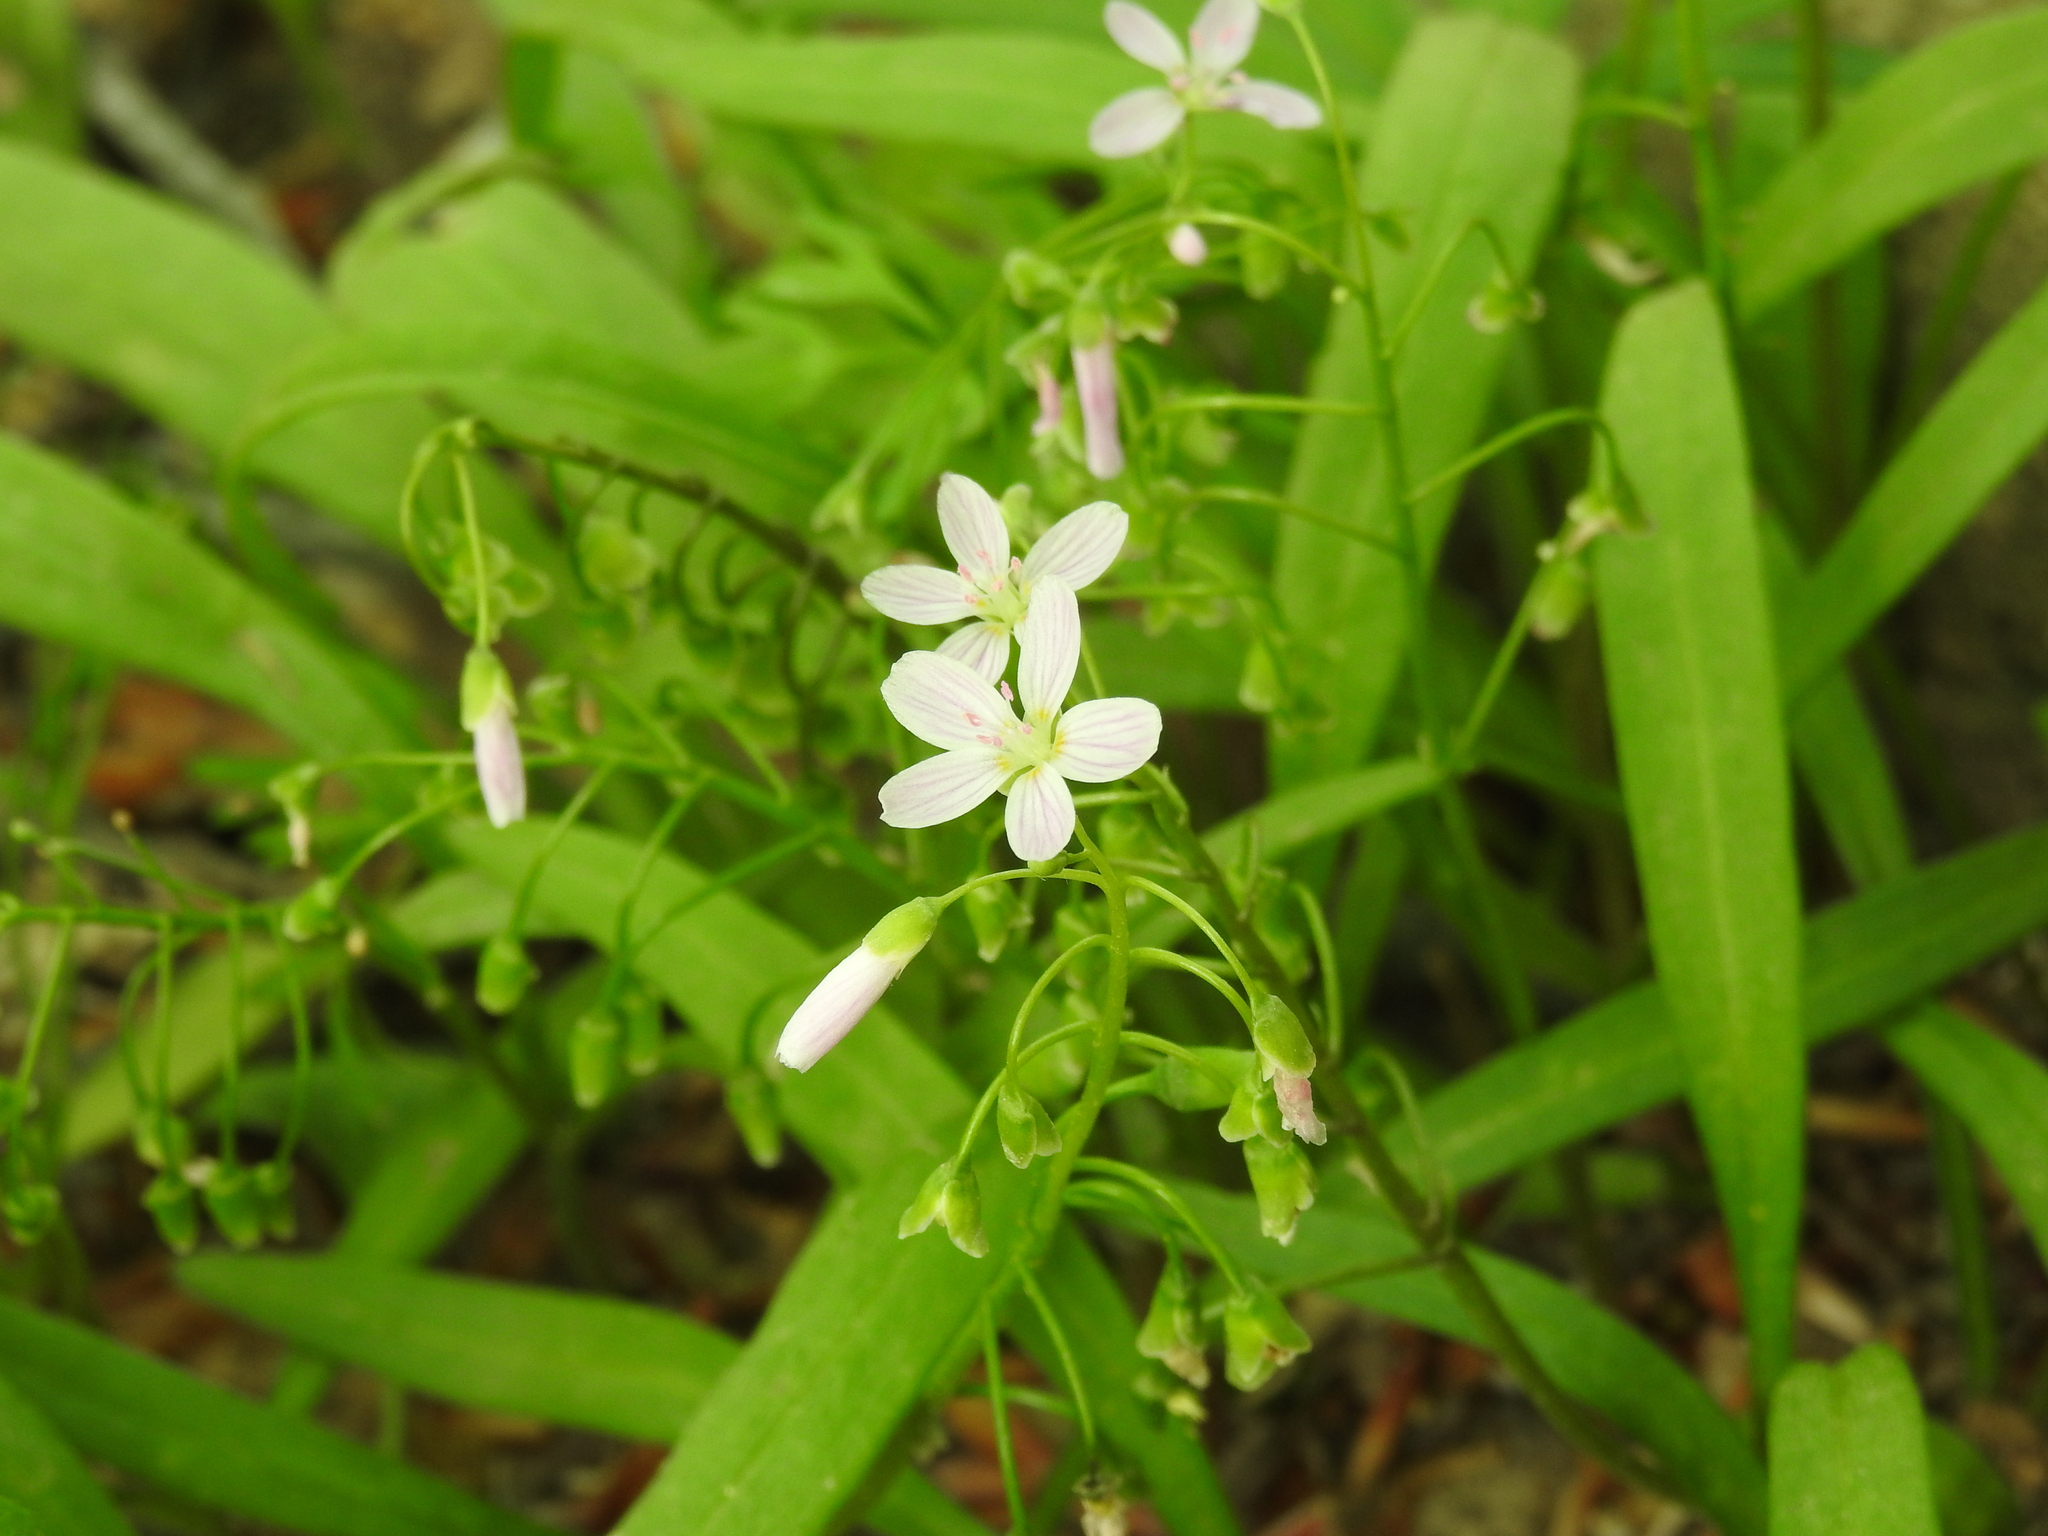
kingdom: Plantae
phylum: Tracheophyta
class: Magnoliopsida
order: Caryophyllales
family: Montiaceae
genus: Claytonia
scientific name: Claytonia virginica
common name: Virginia springbeauty
